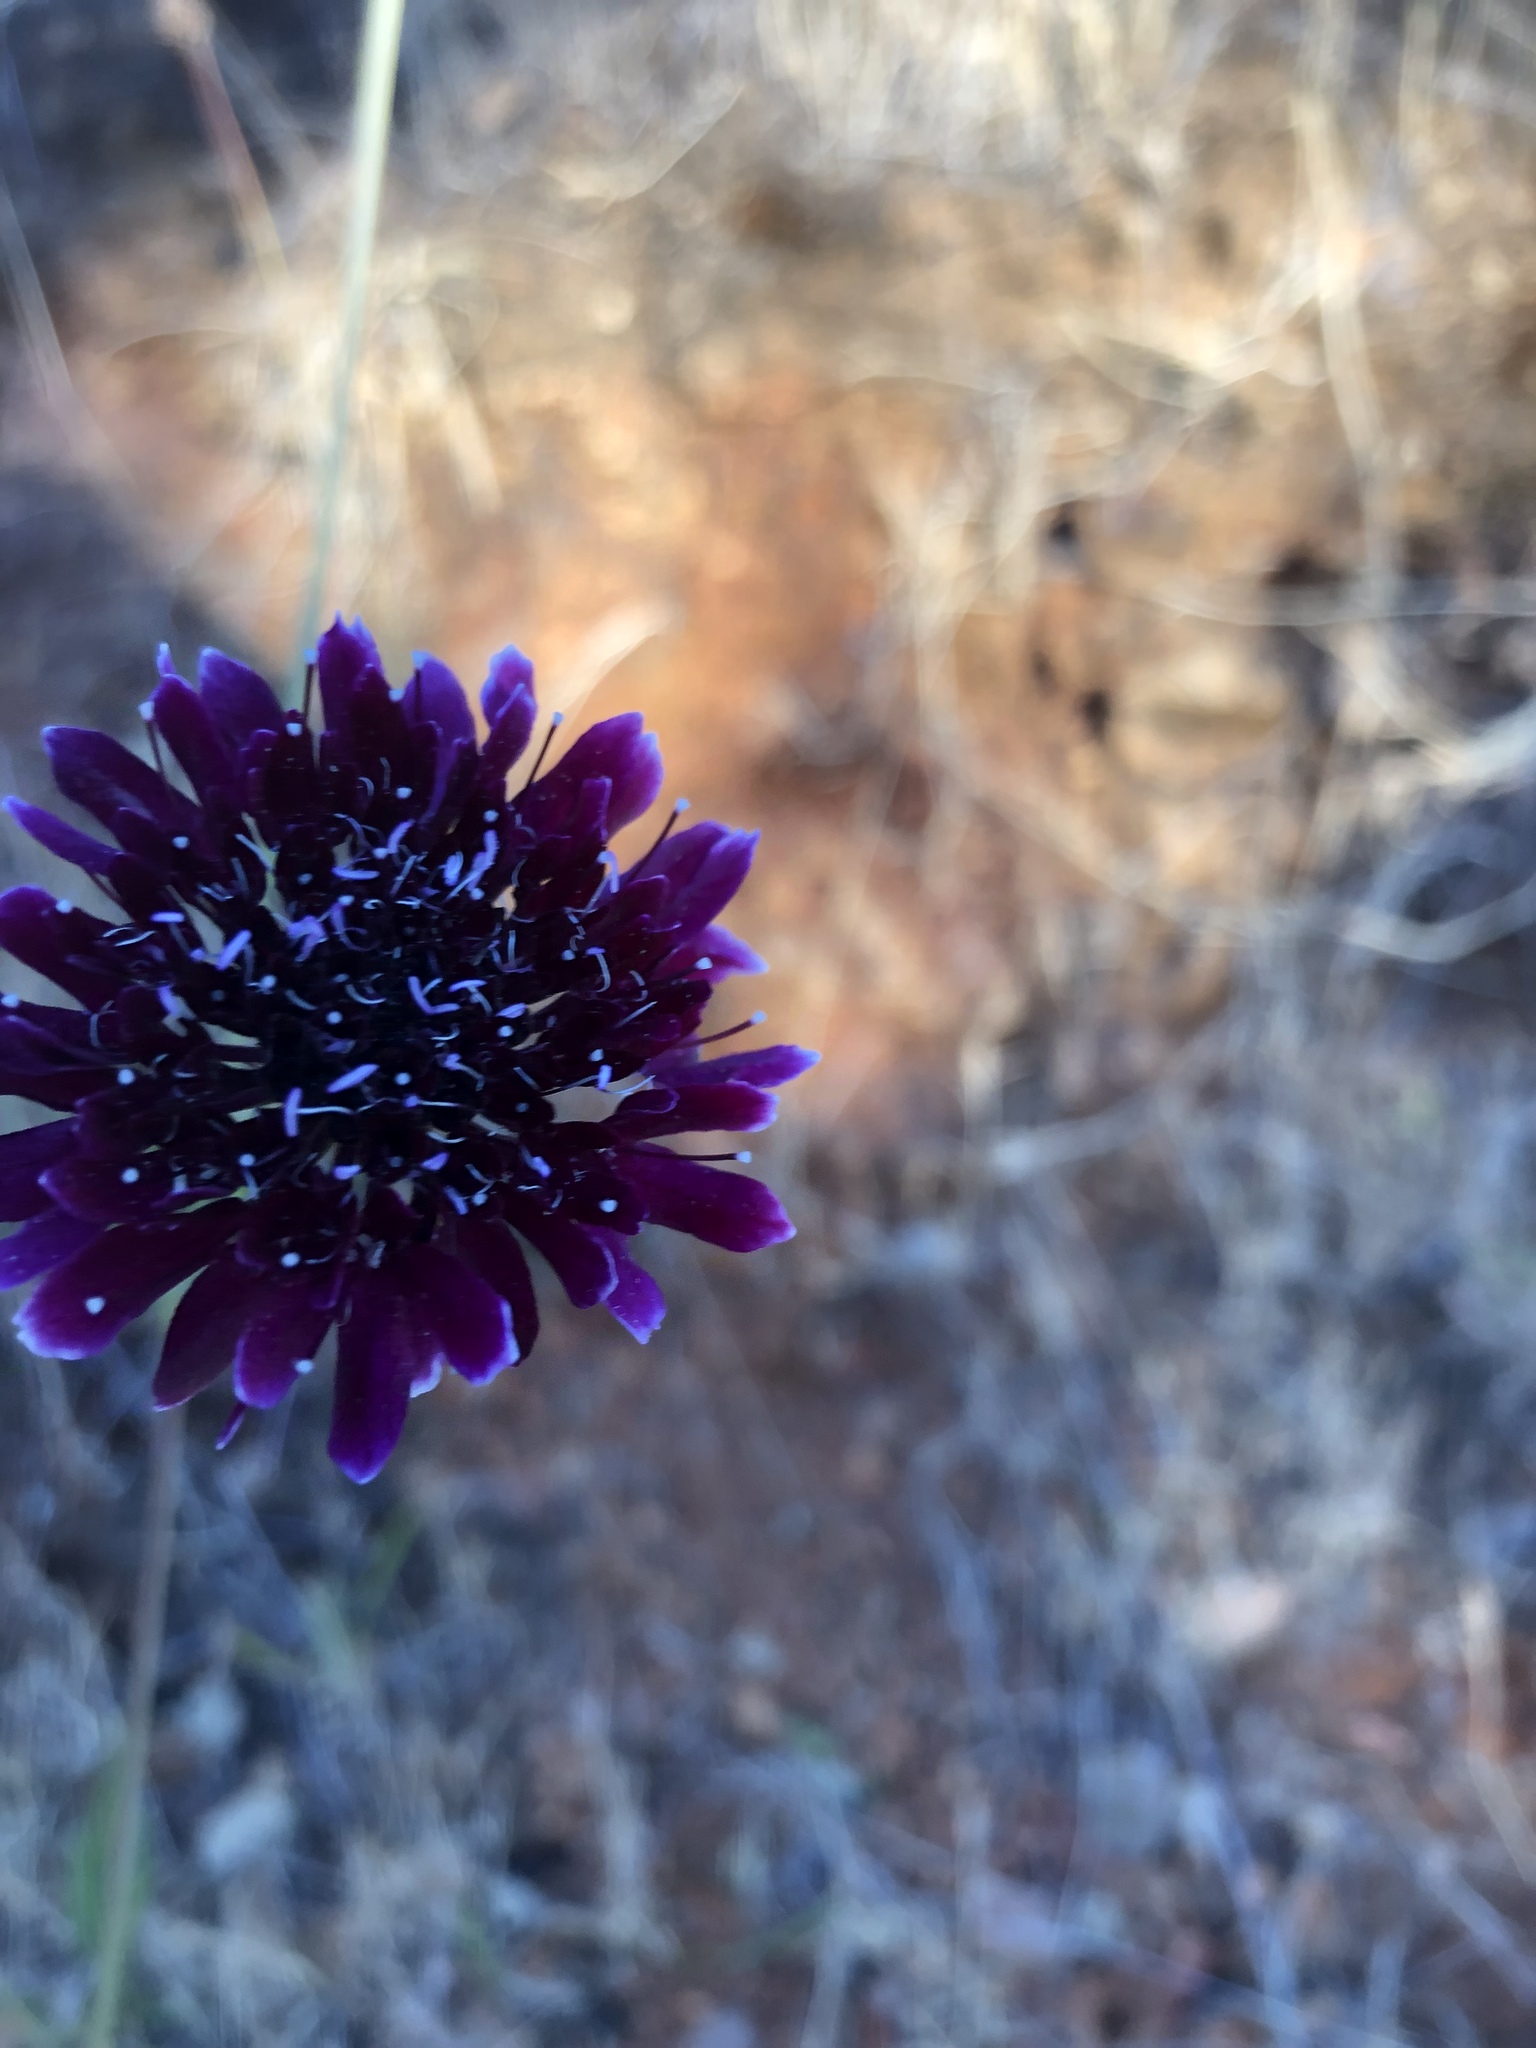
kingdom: Plantae
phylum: Tracheophyta
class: Magnoliopsida
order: Dipsacales
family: Caprifoliaceae
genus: Sixalix
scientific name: Sixalix atropurpurea
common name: Sweet scabious
